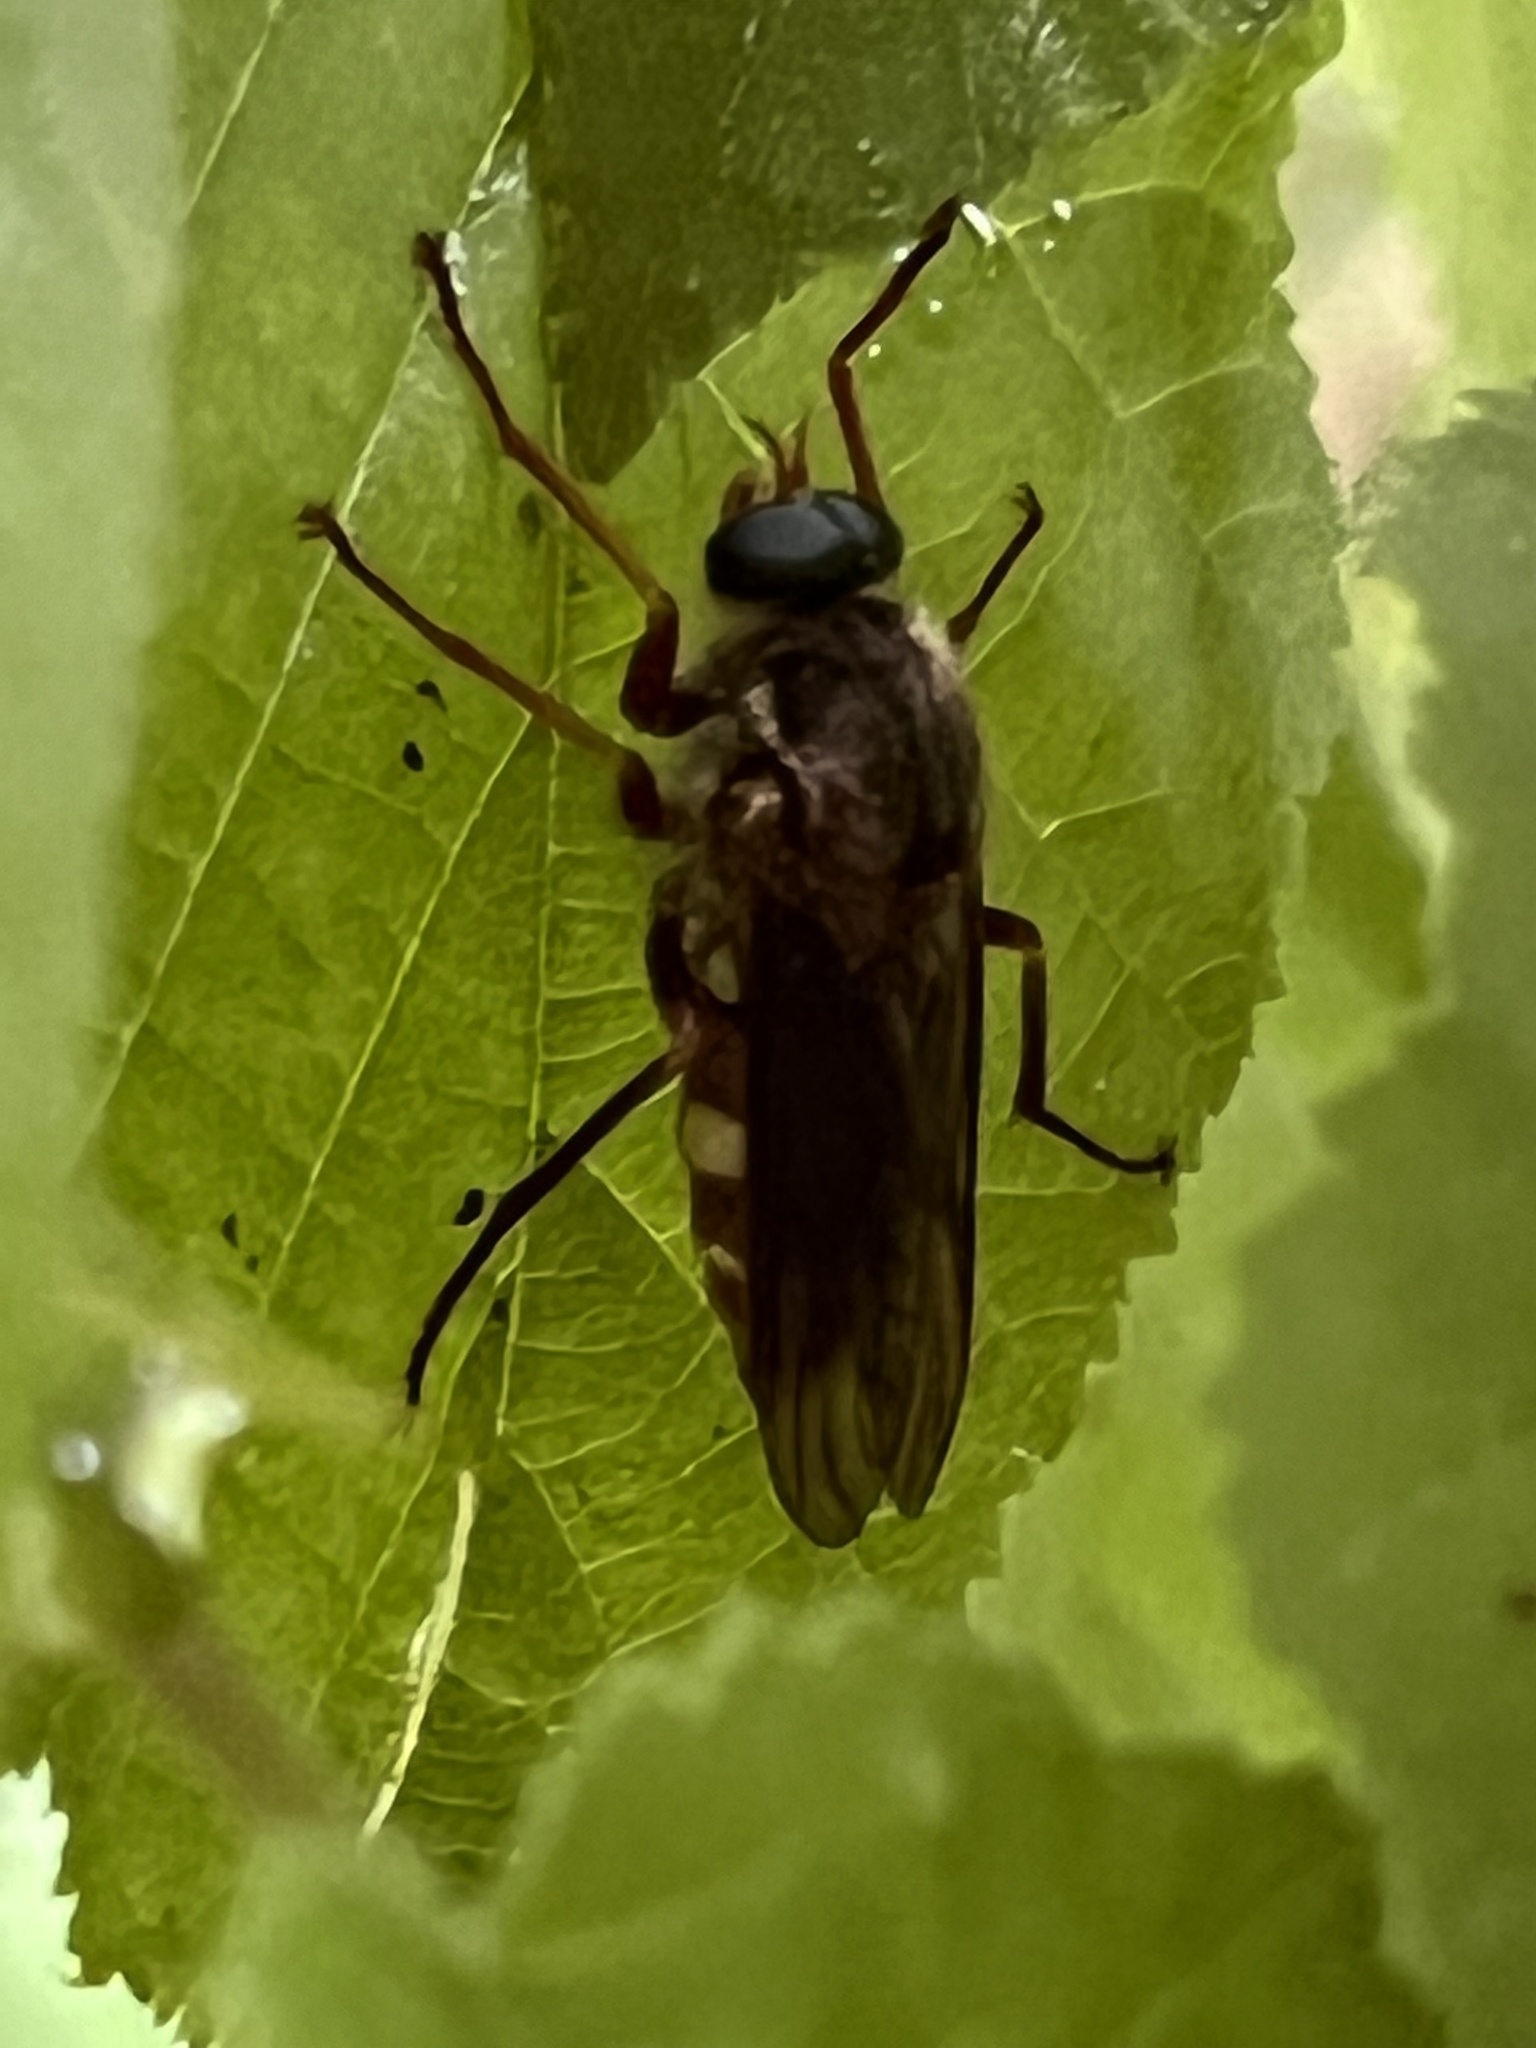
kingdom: Animalia
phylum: Arthropoda
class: Insecta
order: Diptera
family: Xylophagidae
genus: Coenomyia
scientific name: Coenomyia ferruginea
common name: Stink fly
